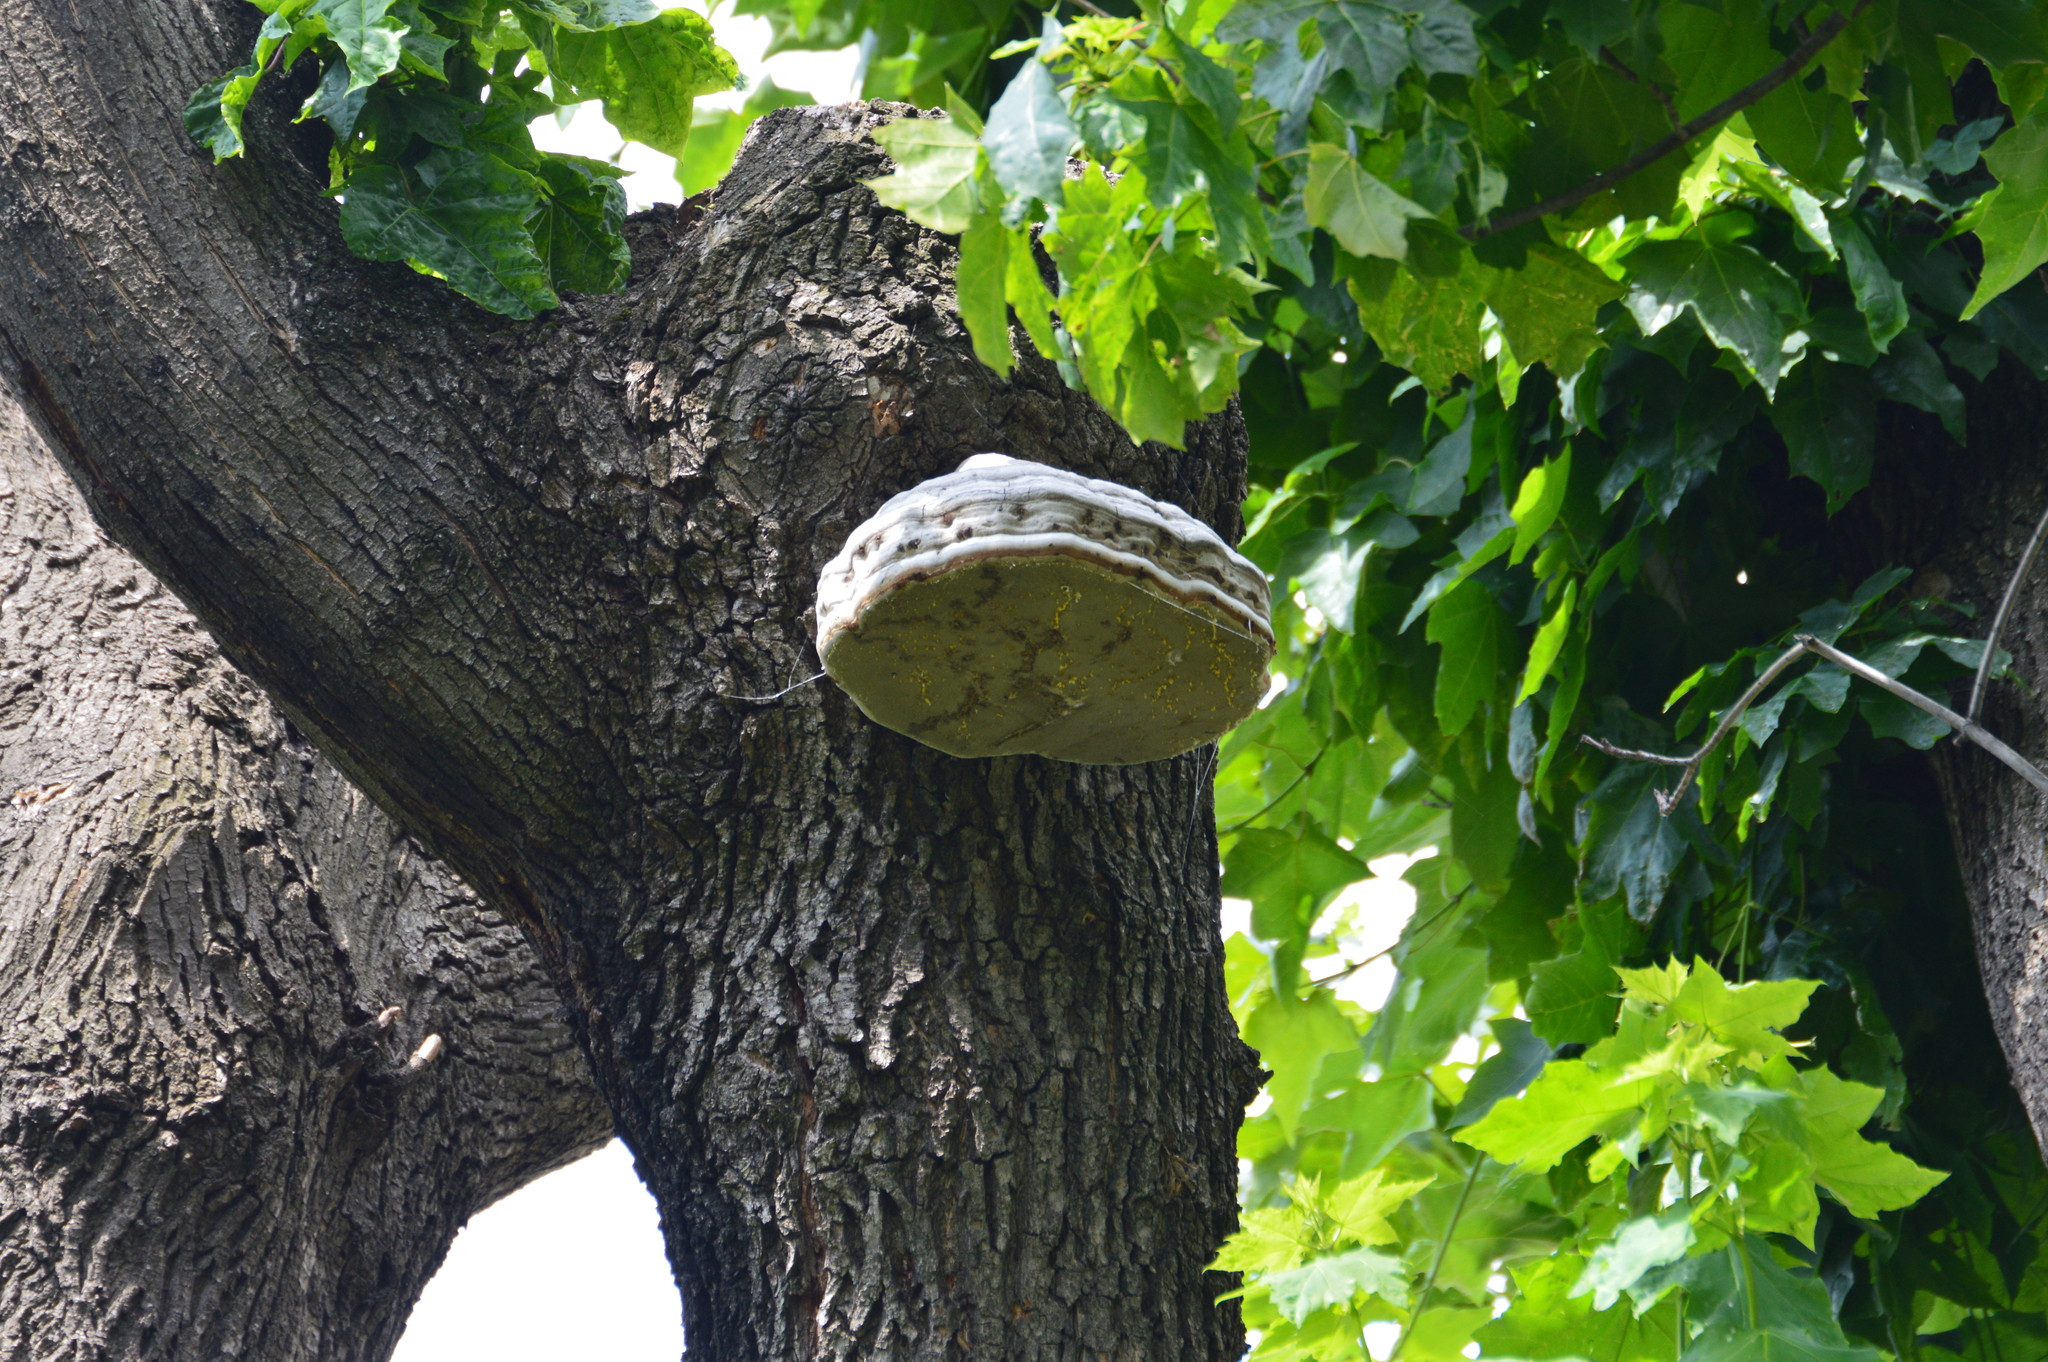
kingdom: Fungi
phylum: Basidiomycota
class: Agaricomycetes
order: Polyporales
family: Polyporaceae
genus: Fomes
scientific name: Fomes fomentarius
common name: Hoof fungus
